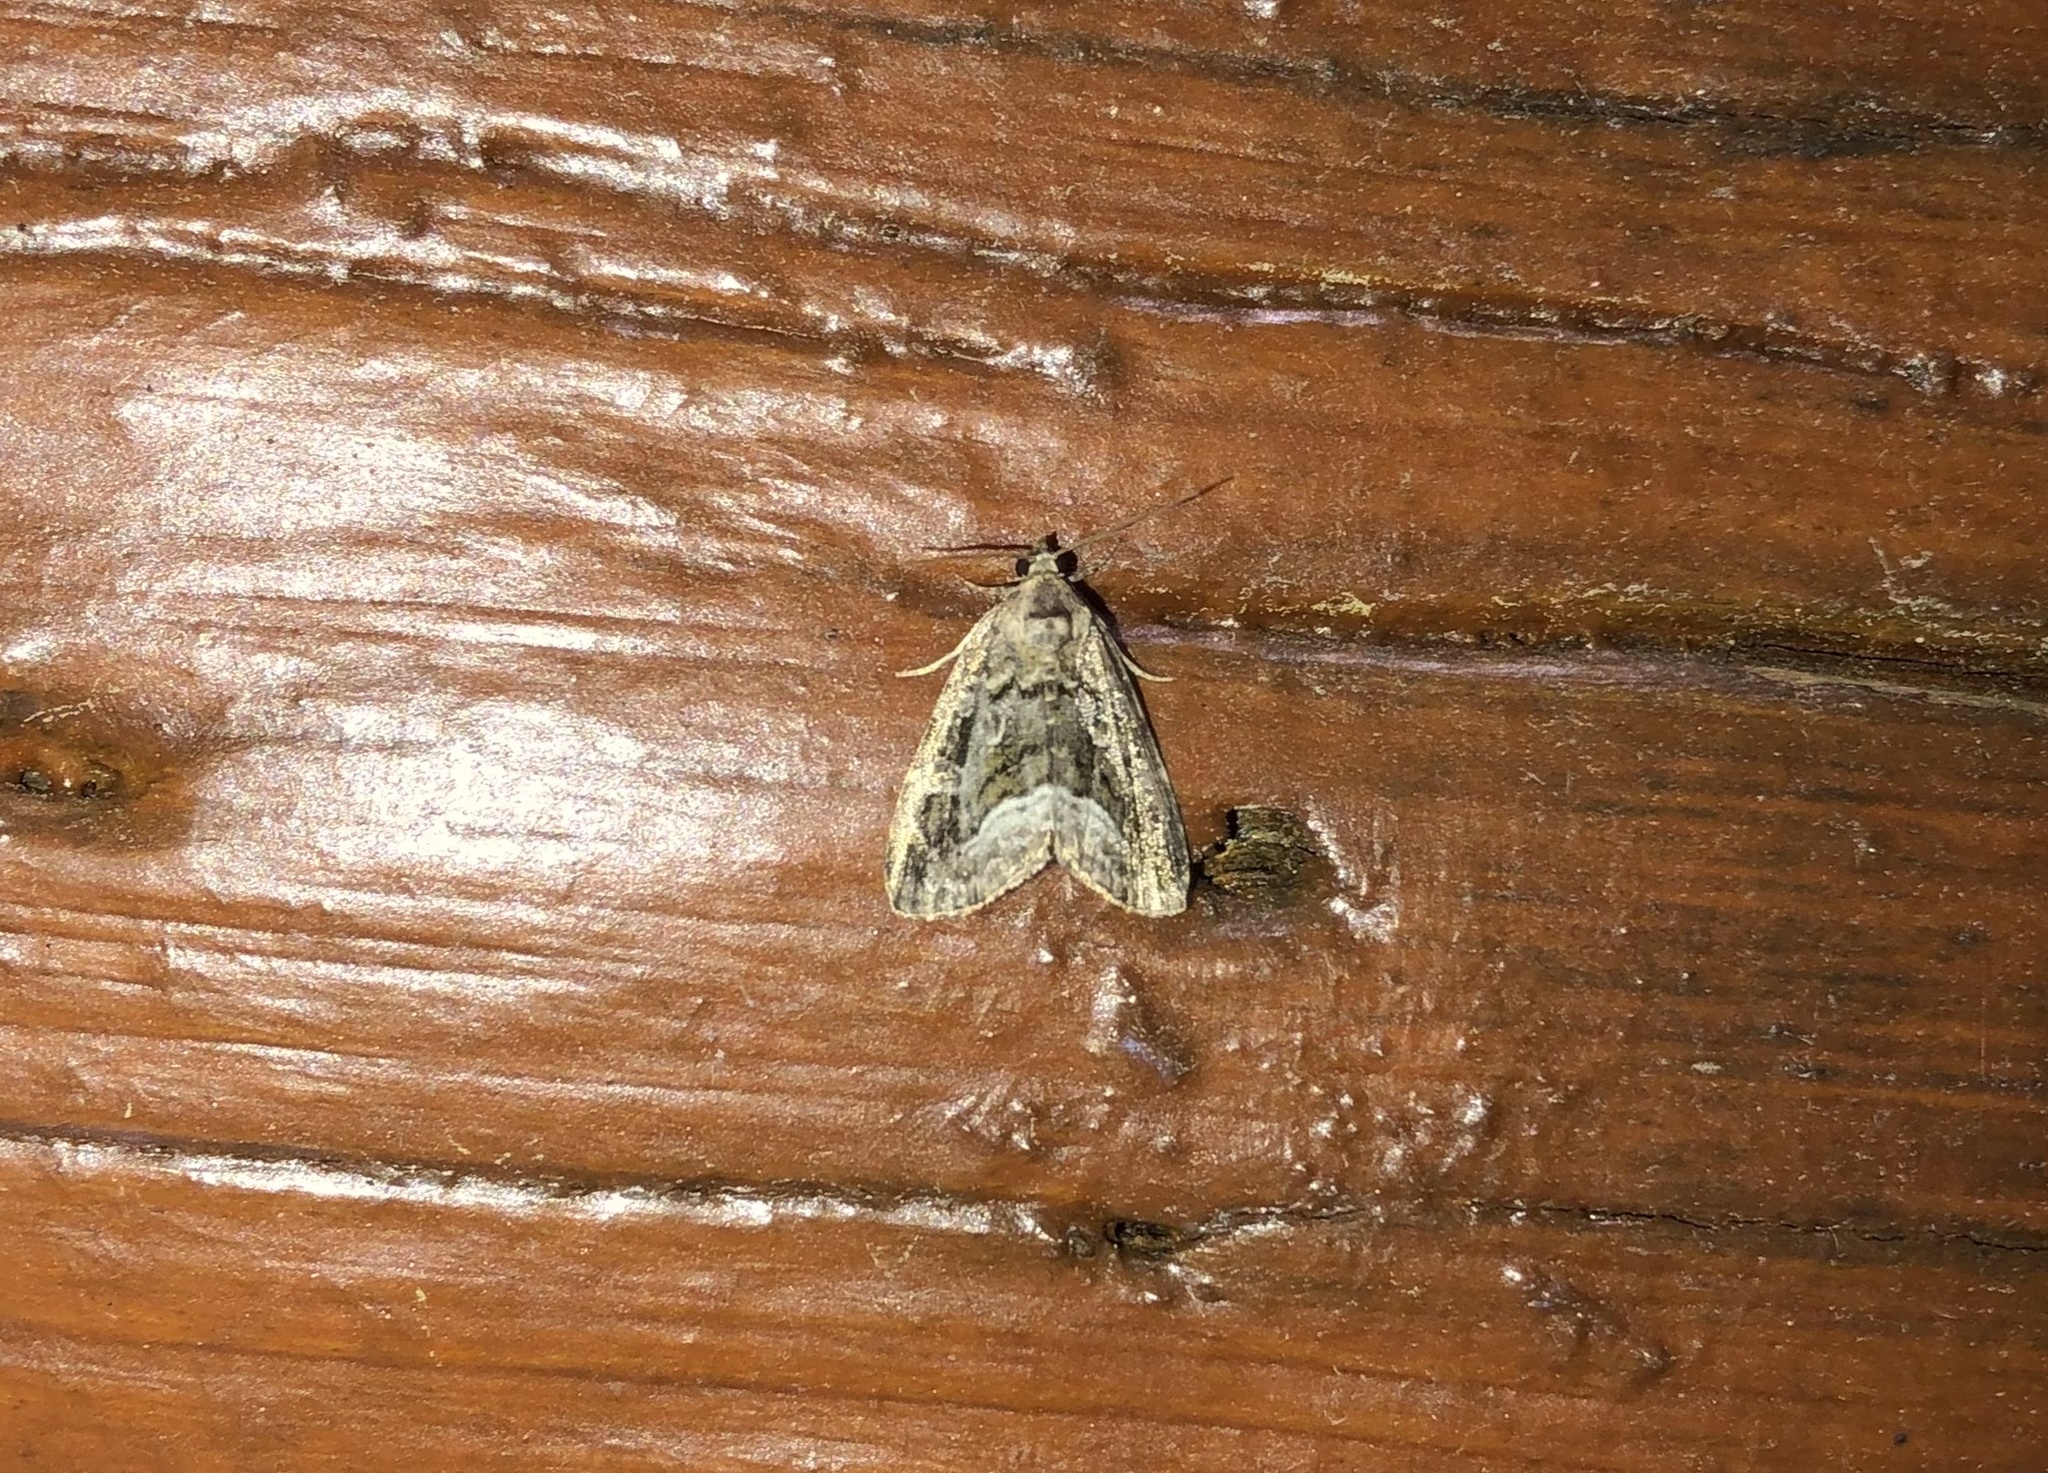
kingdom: Animalia
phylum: Arthropoda
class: Insecta
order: Lepidoptera
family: Noctuidae
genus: Protodeltote
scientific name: Protodeltote muscosula
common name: Large mossy glyph
